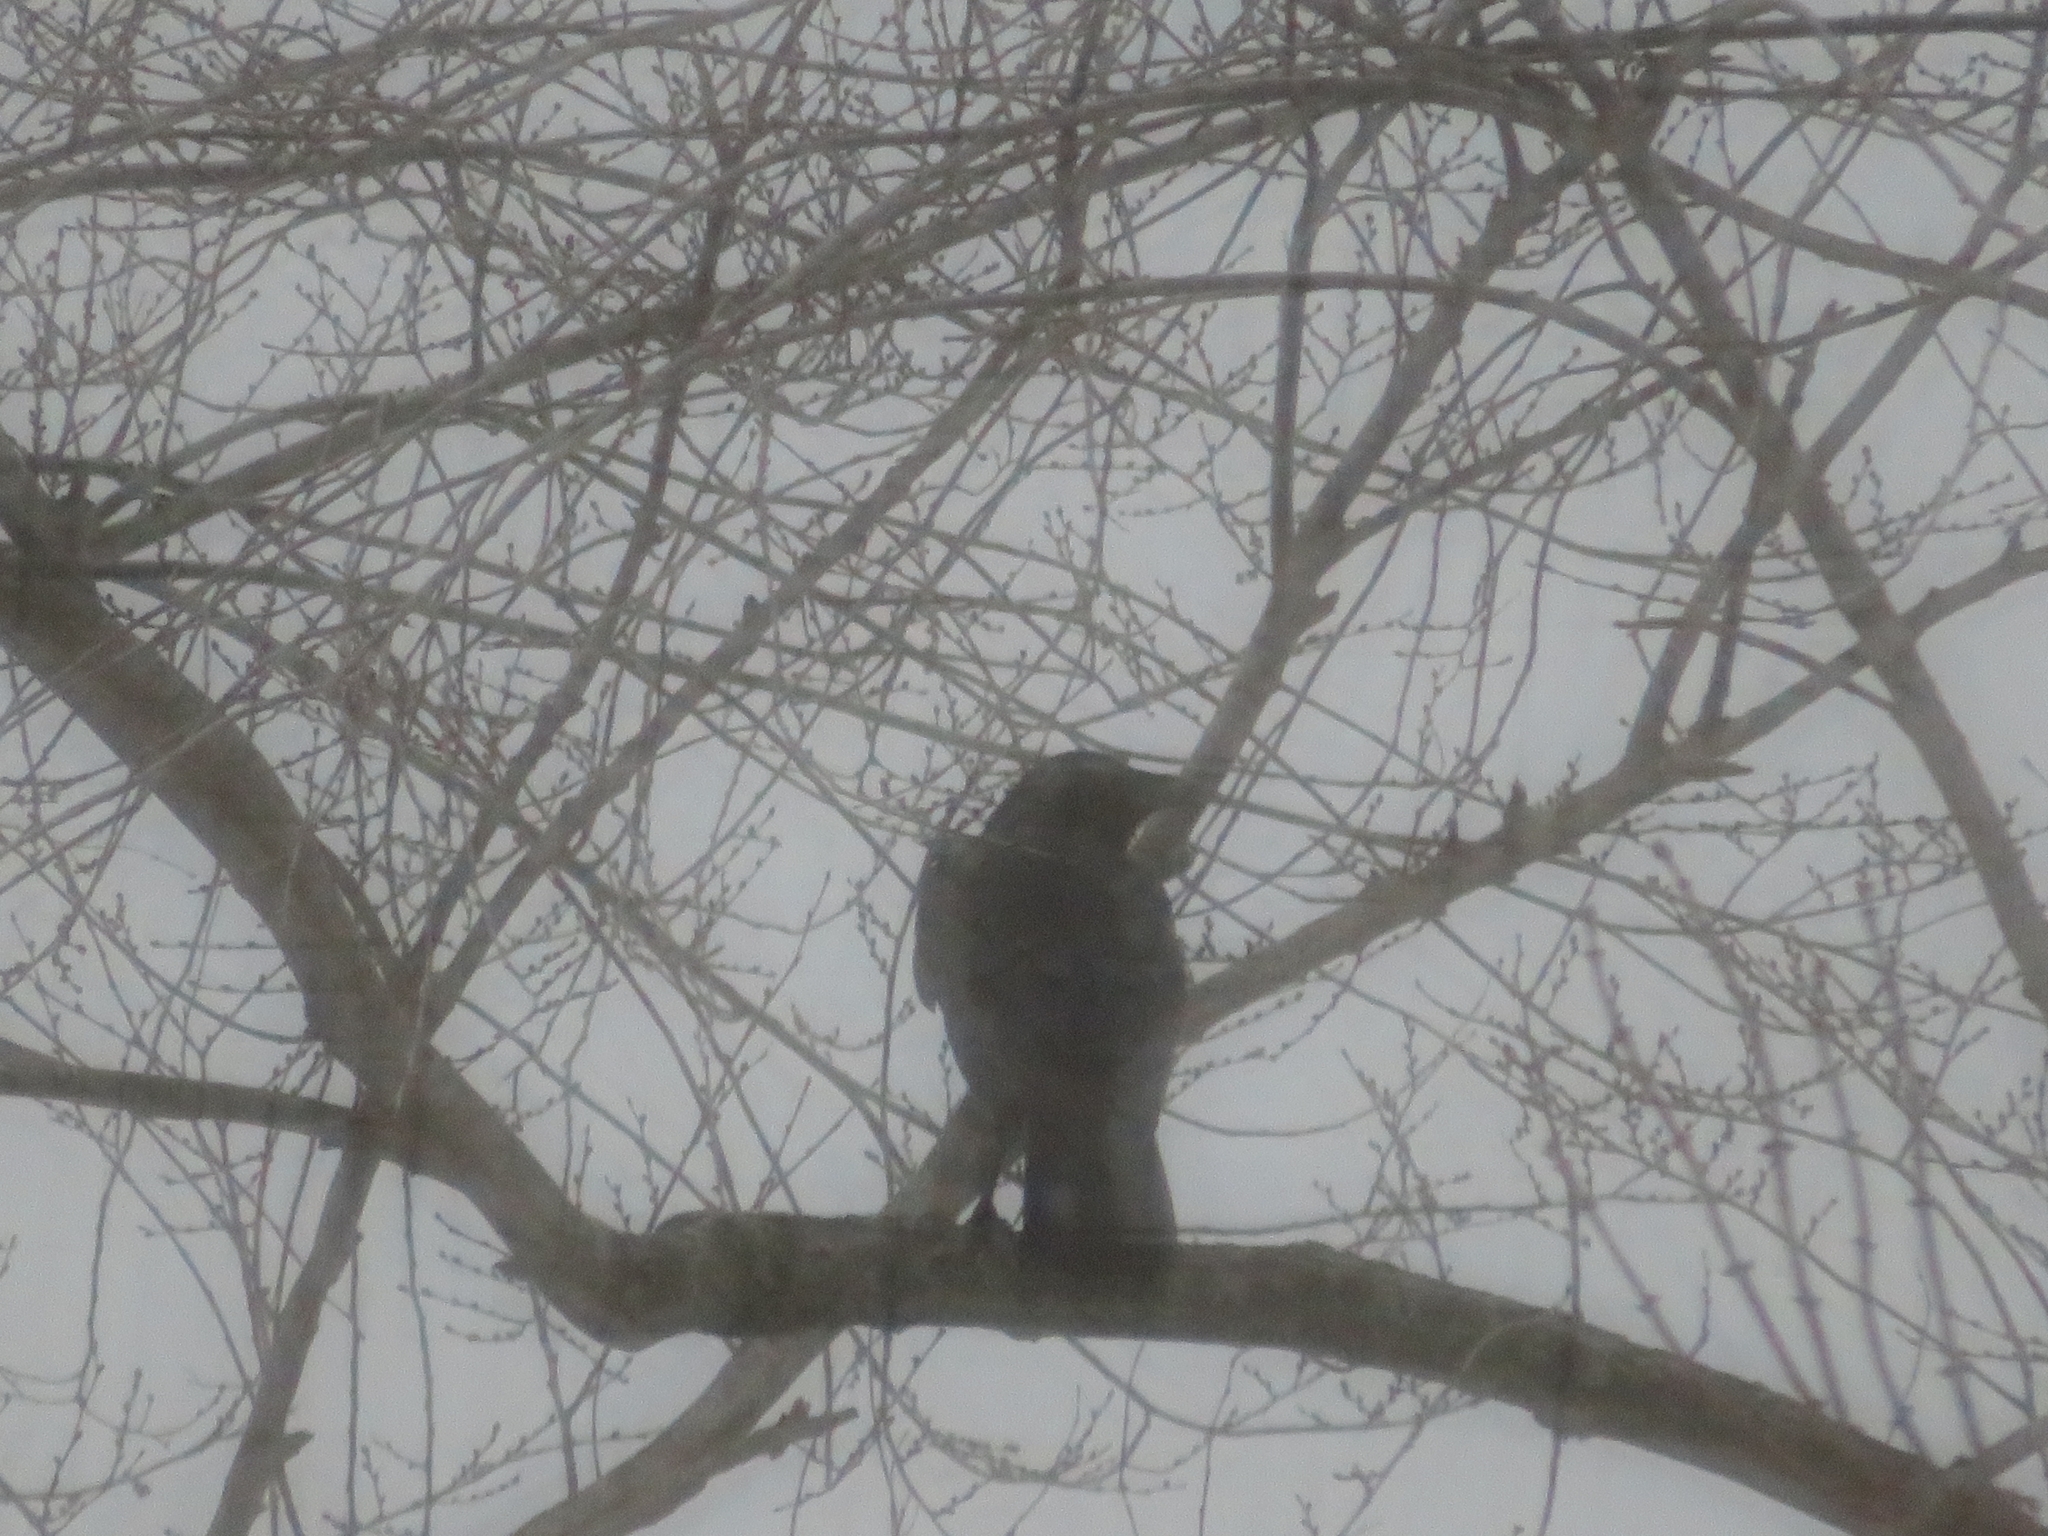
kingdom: Animalia
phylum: Chordata
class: Aves
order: Passeriformes
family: Corvidae
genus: Corvus
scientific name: Corvus brachyrhynchos
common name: American crow
